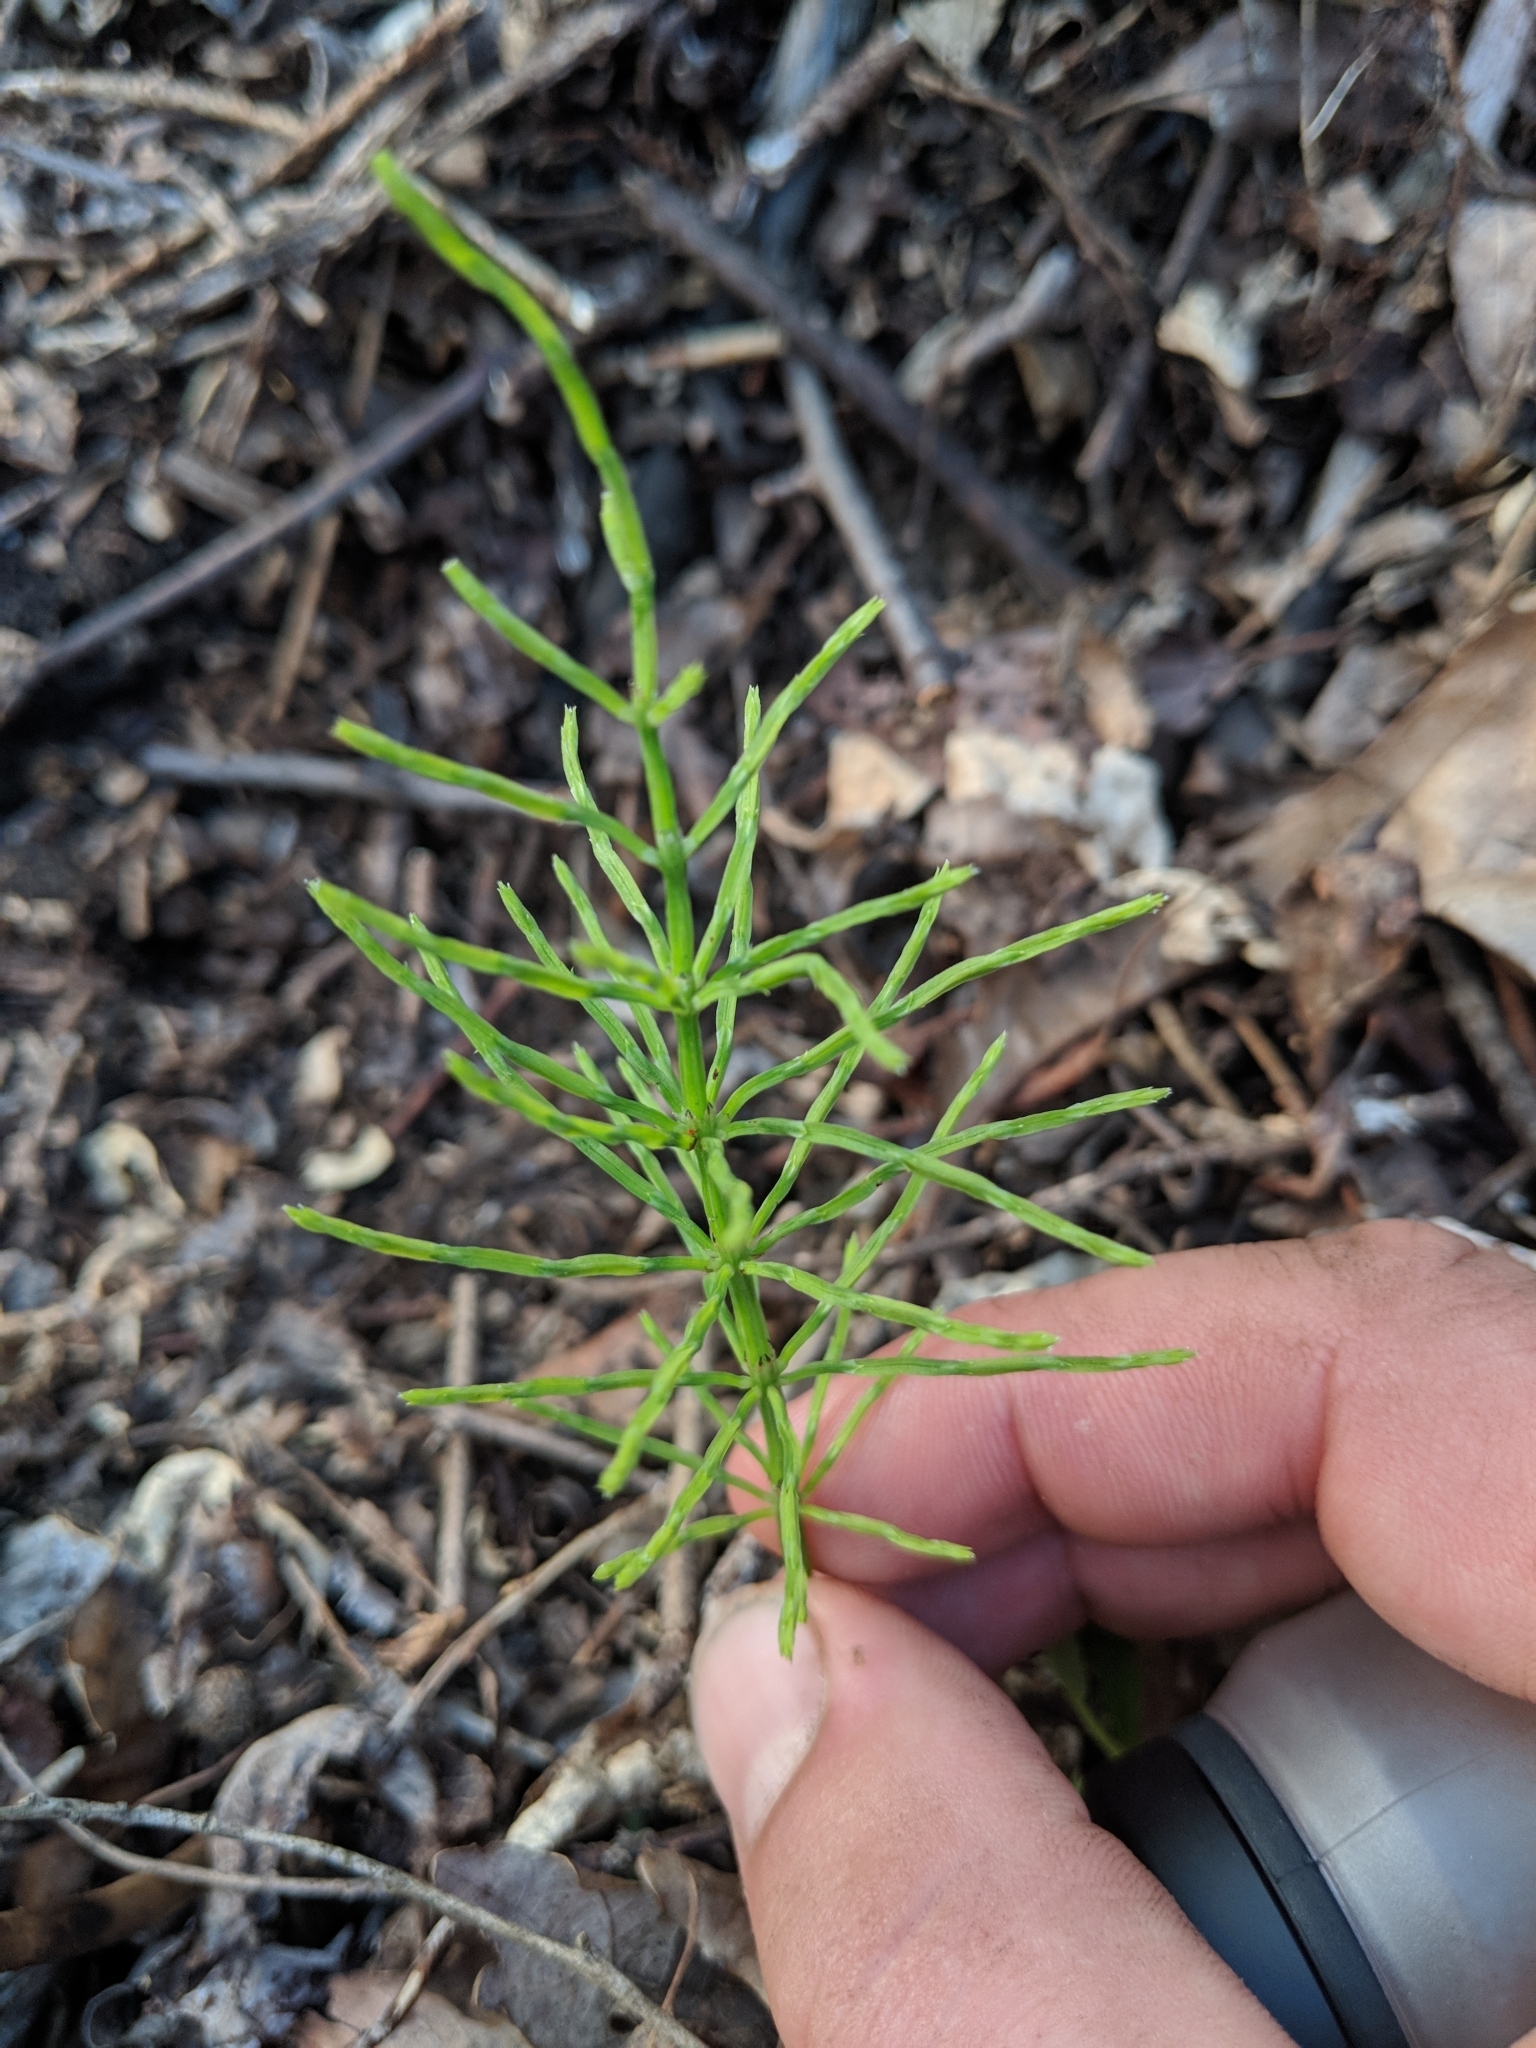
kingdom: Plantae
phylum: Tracheophyta
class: Polypodiopsida
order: Equisetales
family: Equisetaceae
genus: Equisetum
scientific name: Equisetum arvense
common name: Field horsetail
